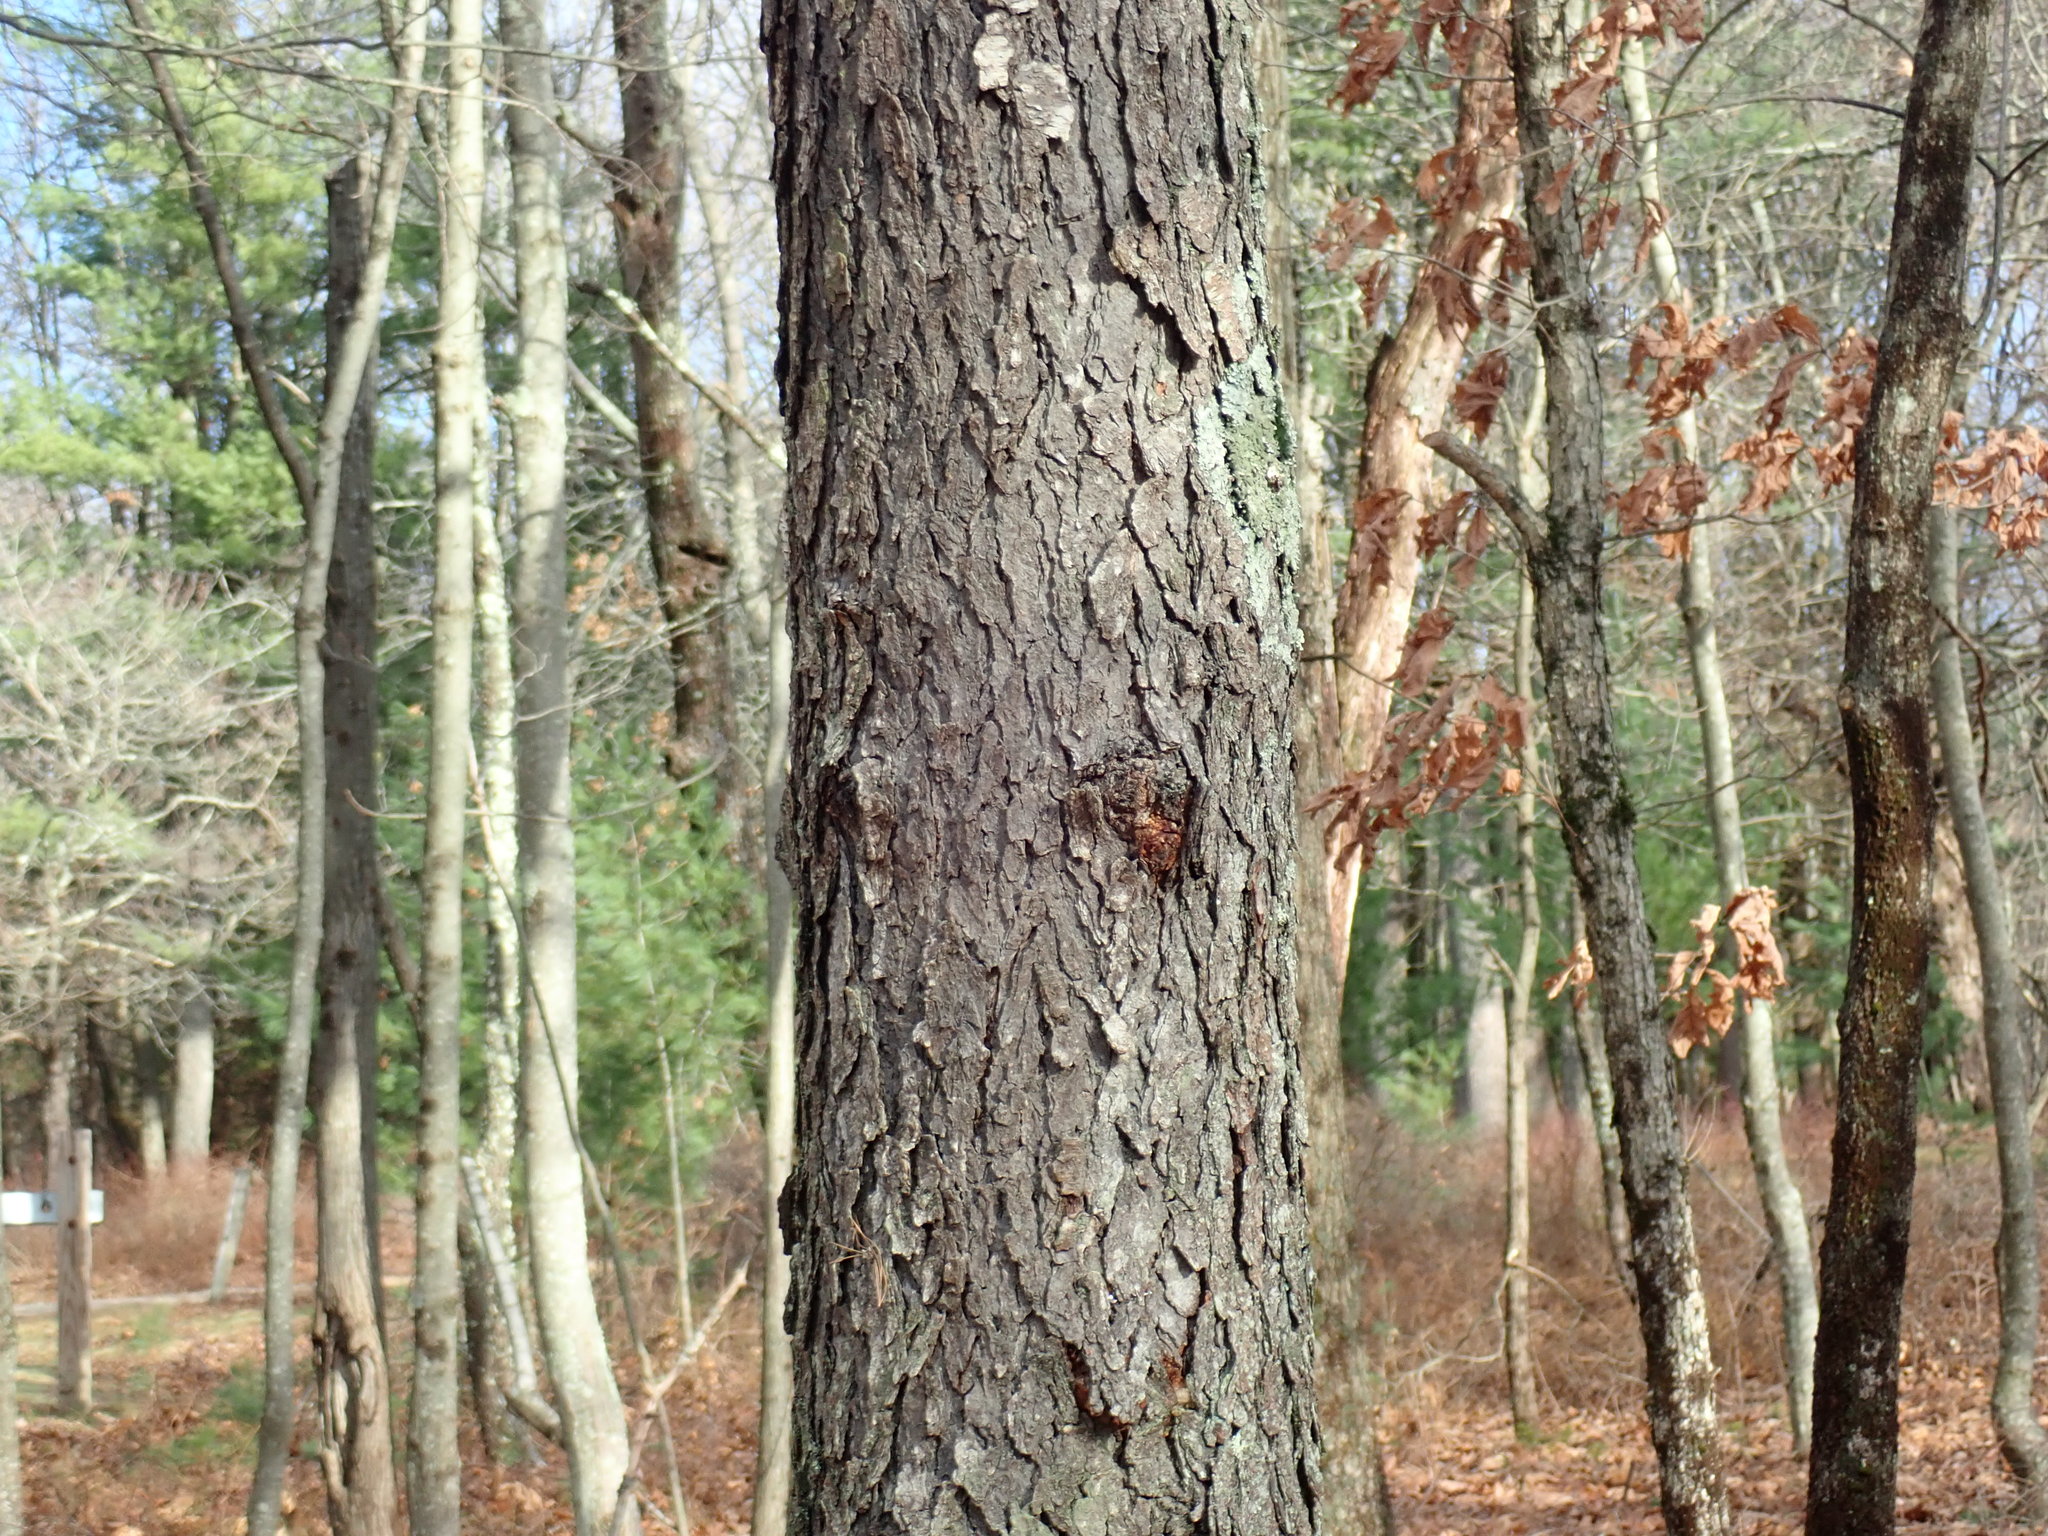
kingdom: Plantae
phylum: Tracheophyta
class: Magnoliopsida
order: Rosales
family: Rosaceae
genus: Prunus
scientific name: Prunus serotina
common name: Black cherry
